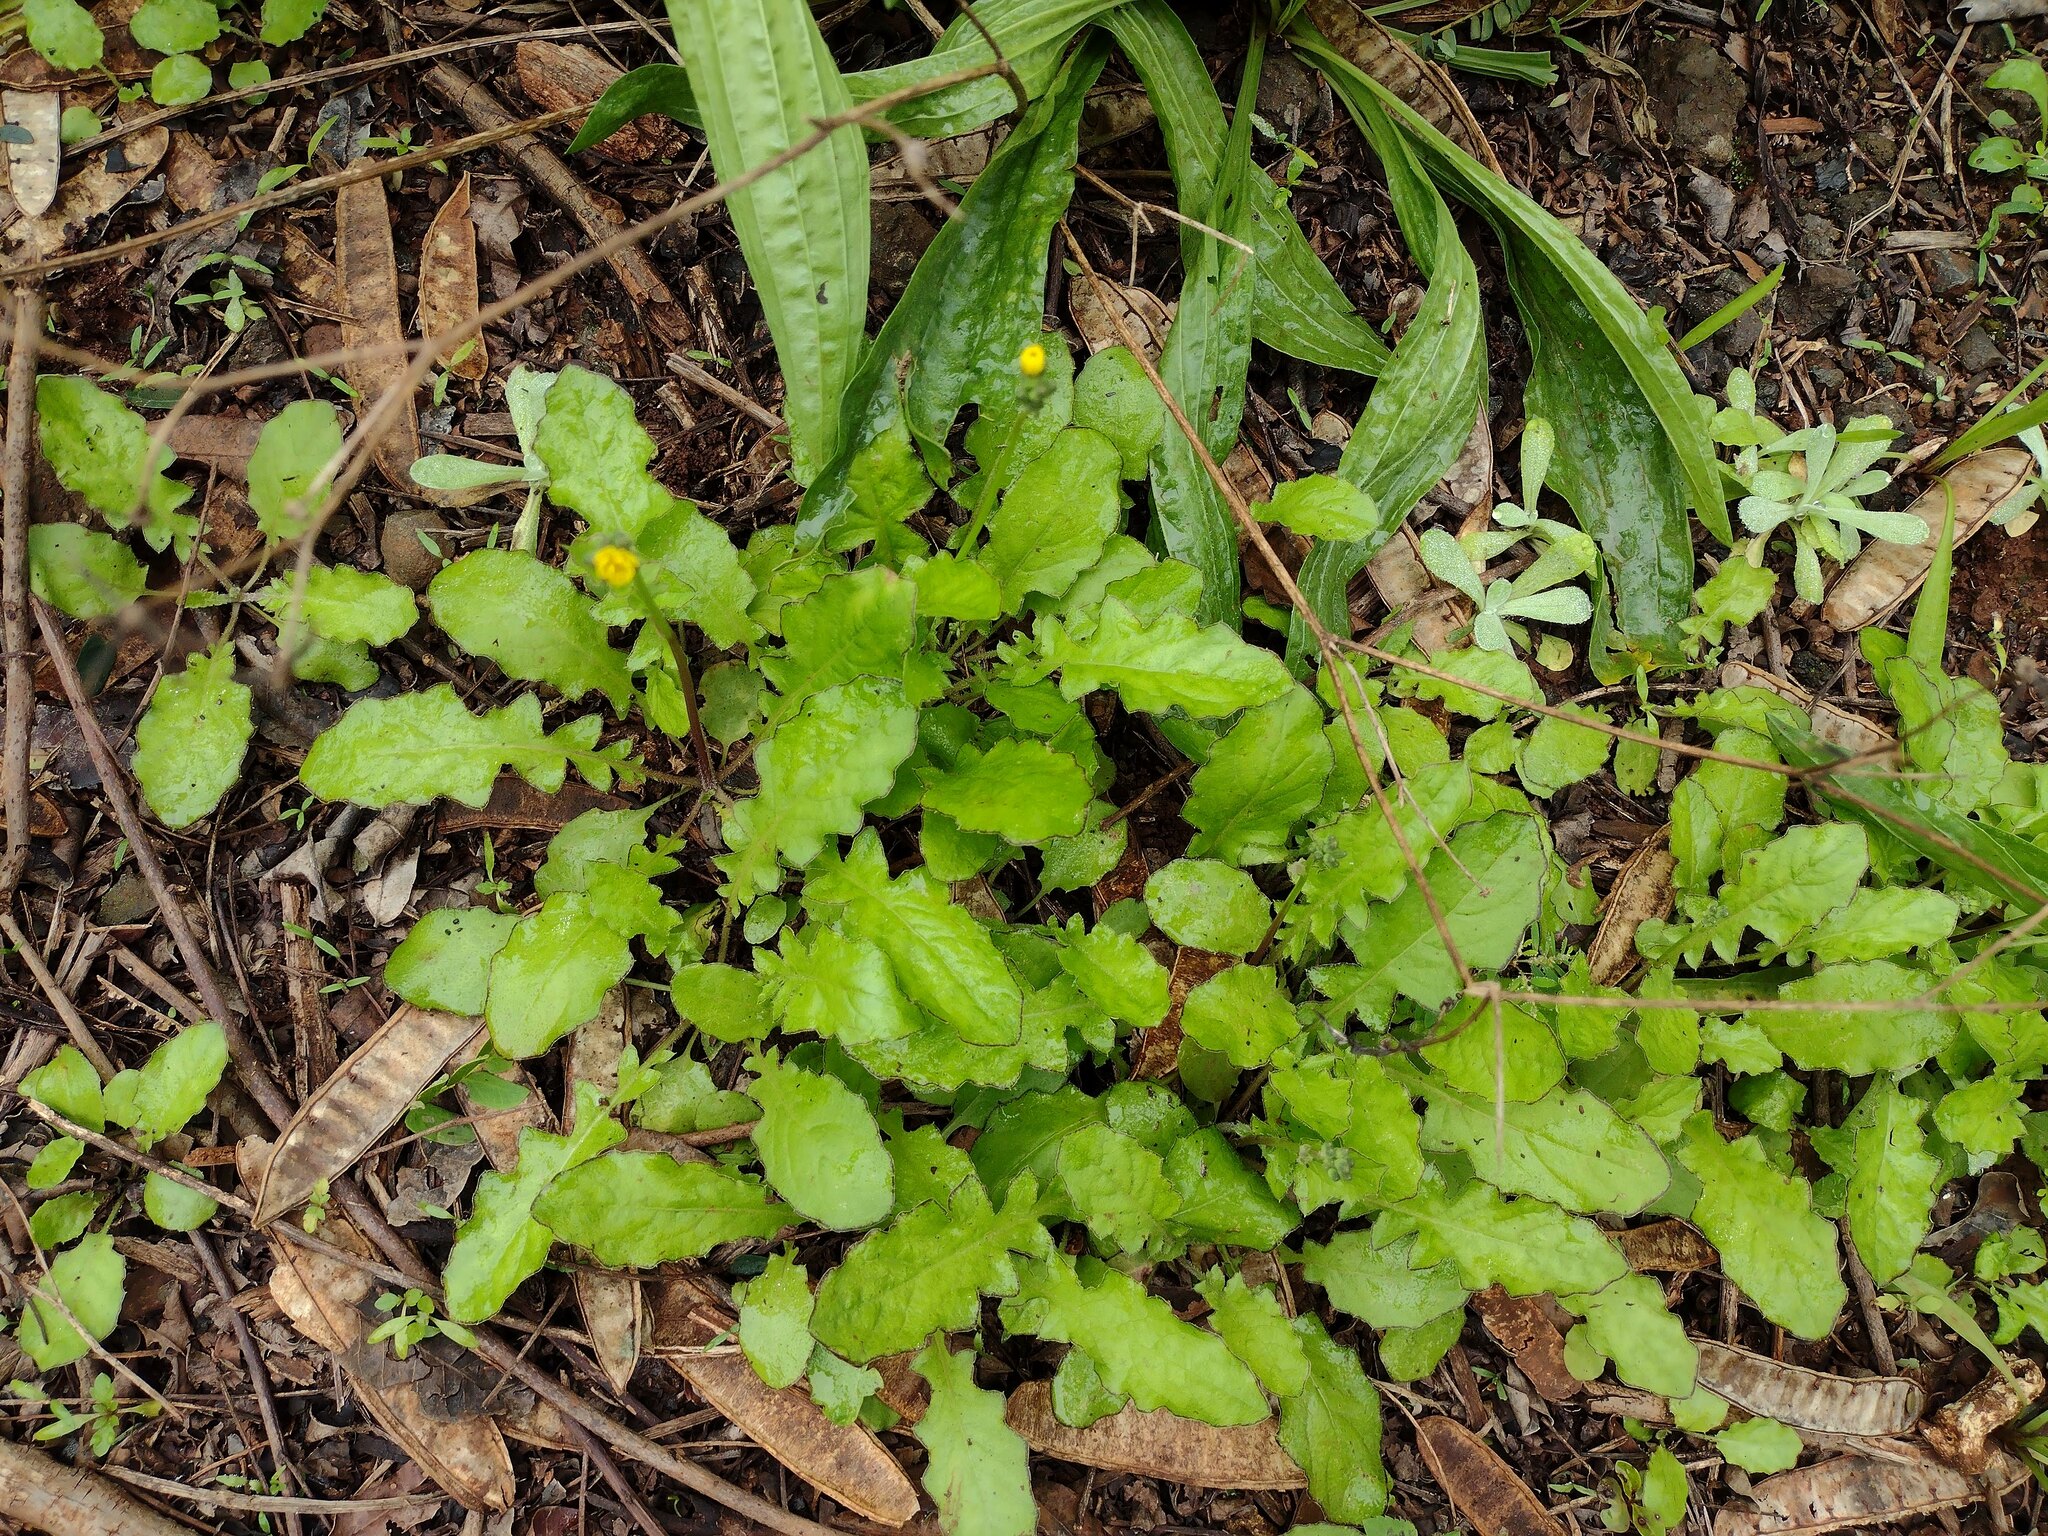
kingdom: Plantae
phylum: Tracheophyta
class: Magnoliopsida
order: Asterales
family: Asteraceae
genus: Youngia
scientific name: Youngia japonica
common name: Oriental false hawksbeard
